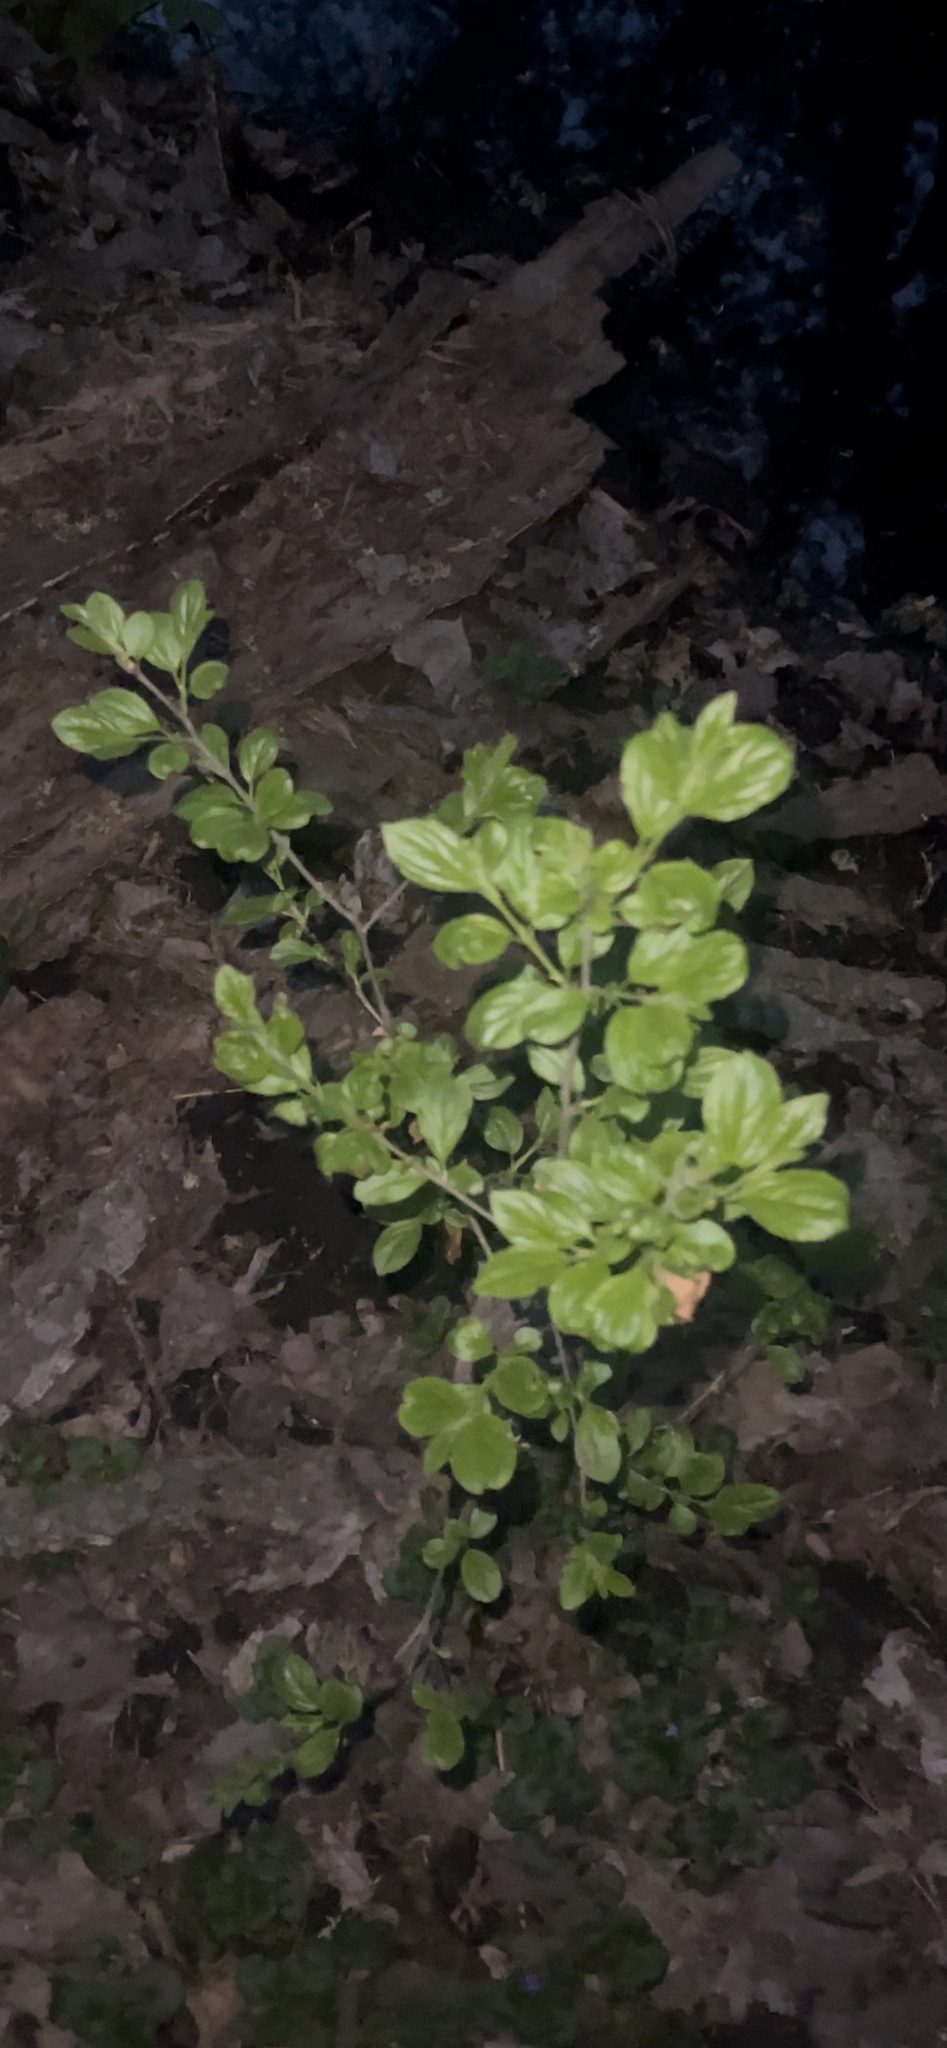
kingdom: Plantae
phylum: Tracheophyta
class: Magnoliopsida
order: Rosales
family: Rhamnaceae
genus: Rhamnus
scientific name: Rhamnus cathartica
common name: Common buckthorn
